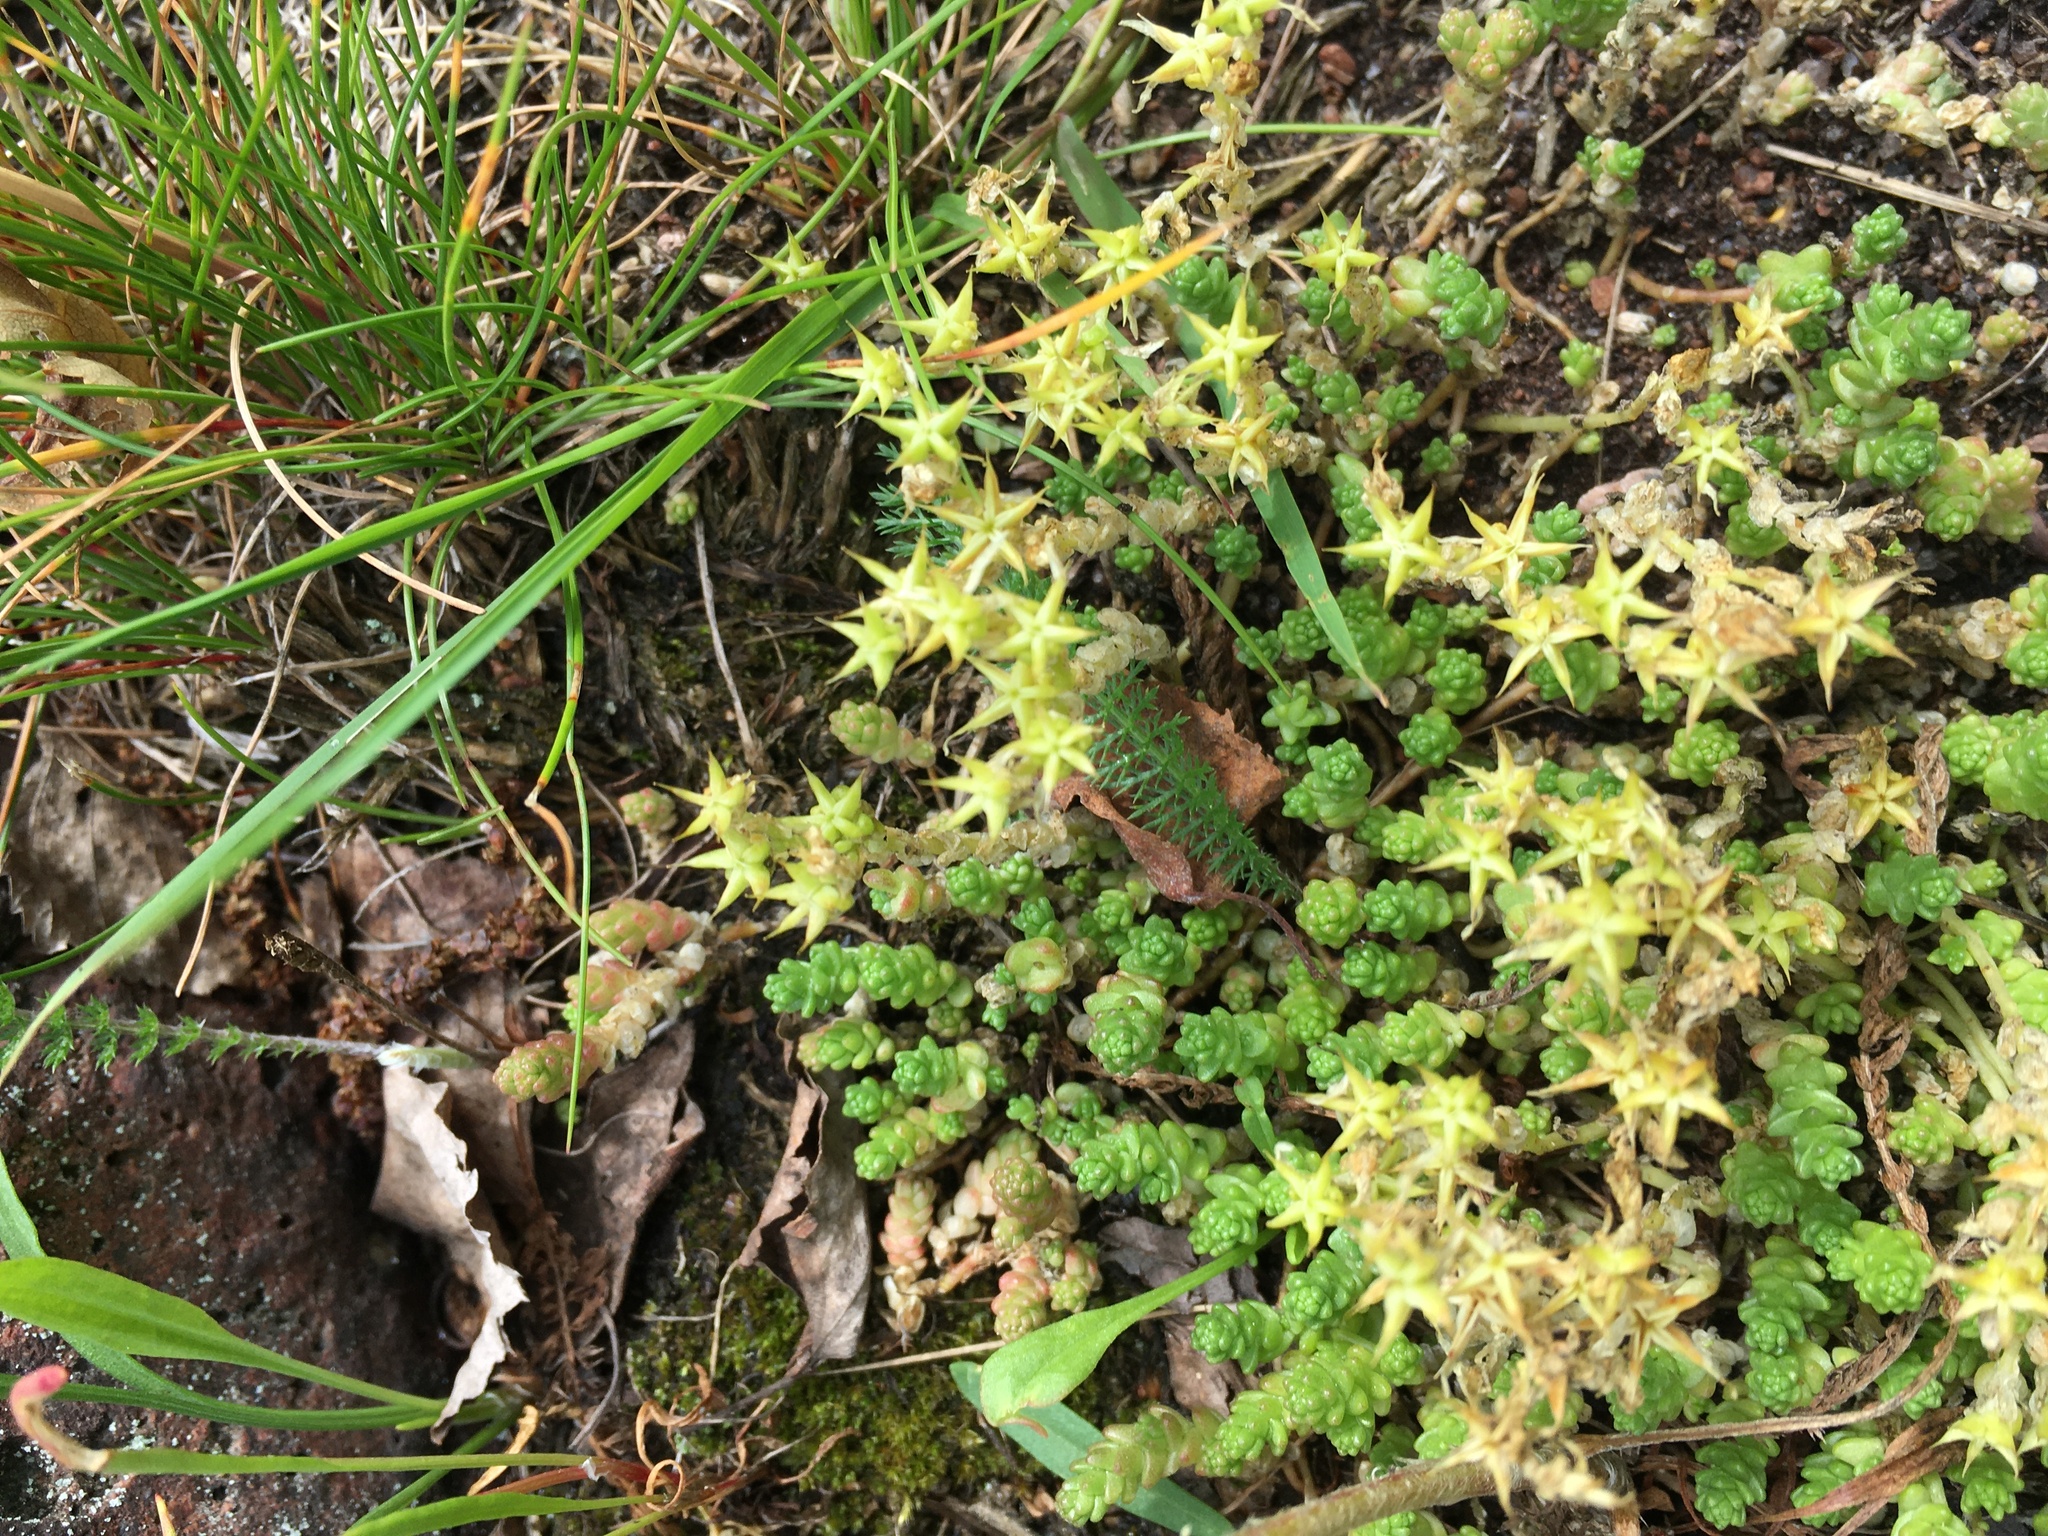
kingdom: Plantae
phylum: Tracheophyta
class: Magnoliopsida
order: Saxifragales
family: Crassulaceae
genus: Sedum
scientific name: Sedum acre
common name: Biting stonecrop
